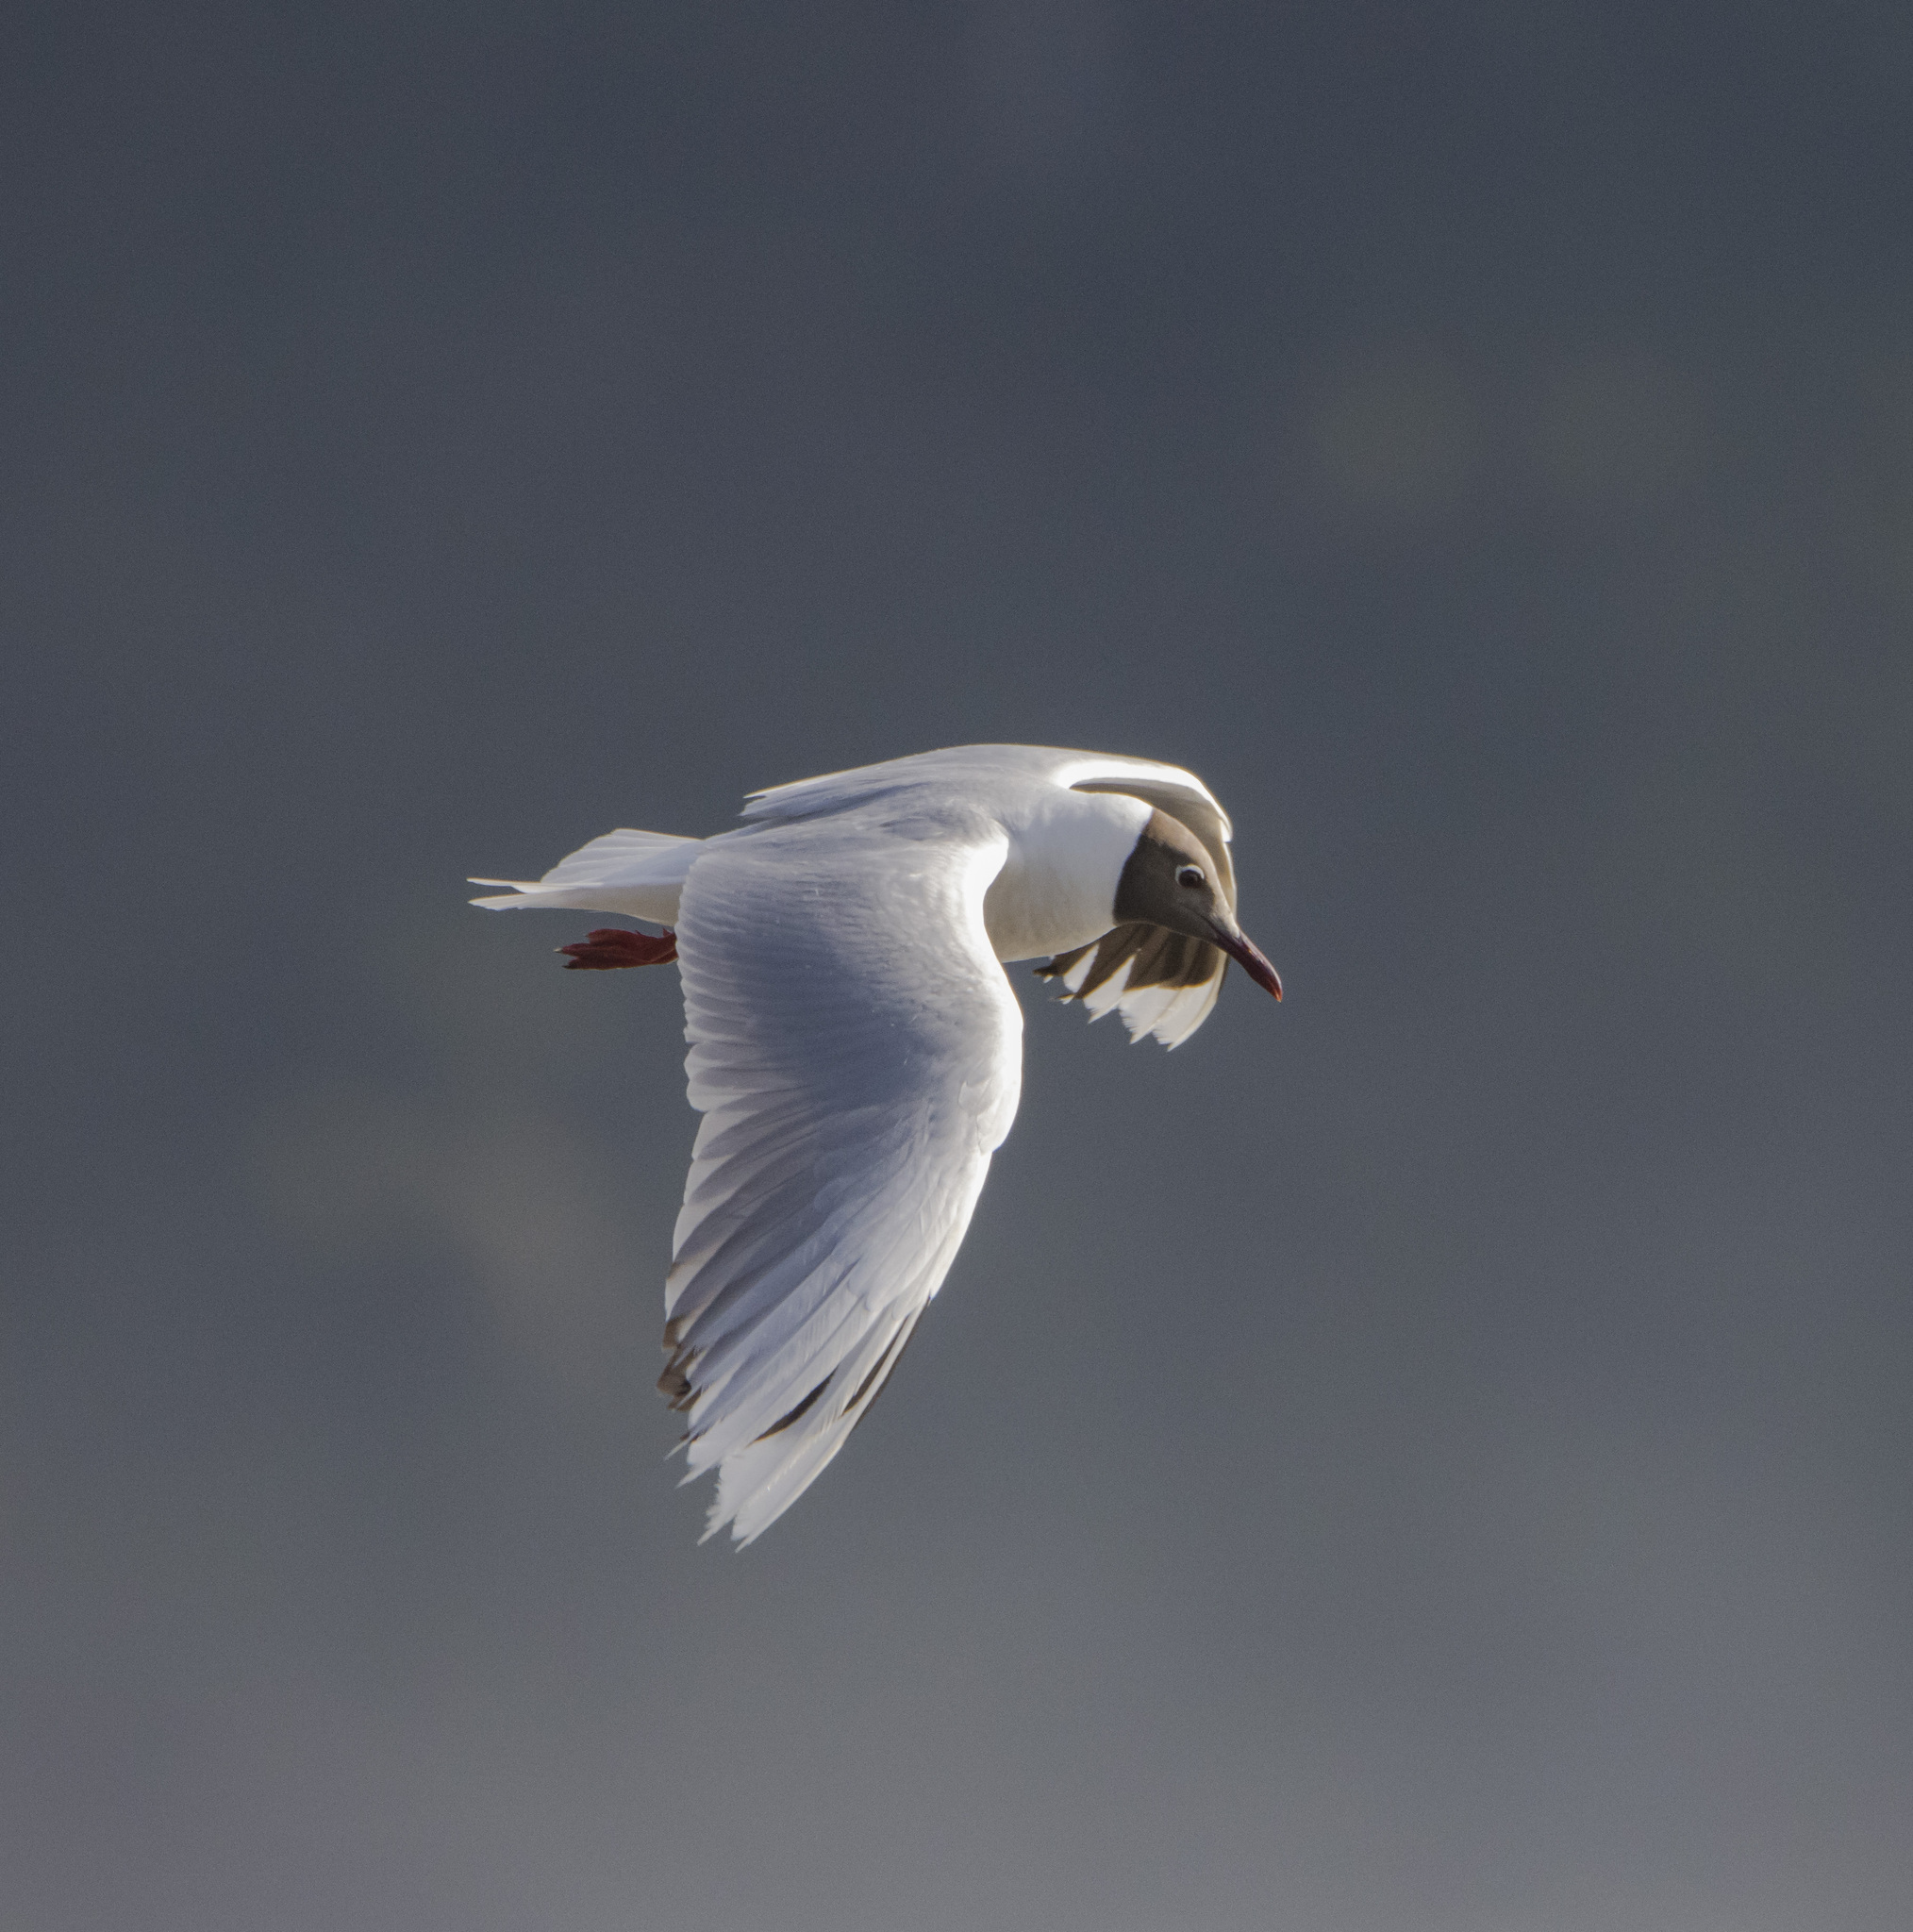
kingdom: Animalia
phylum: Chordata
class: Aves
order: Charadriiformes
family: Laridae
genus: Chroicocephalus
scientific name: Chroicocephalus maculipennis
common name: Brown-hooded gull
